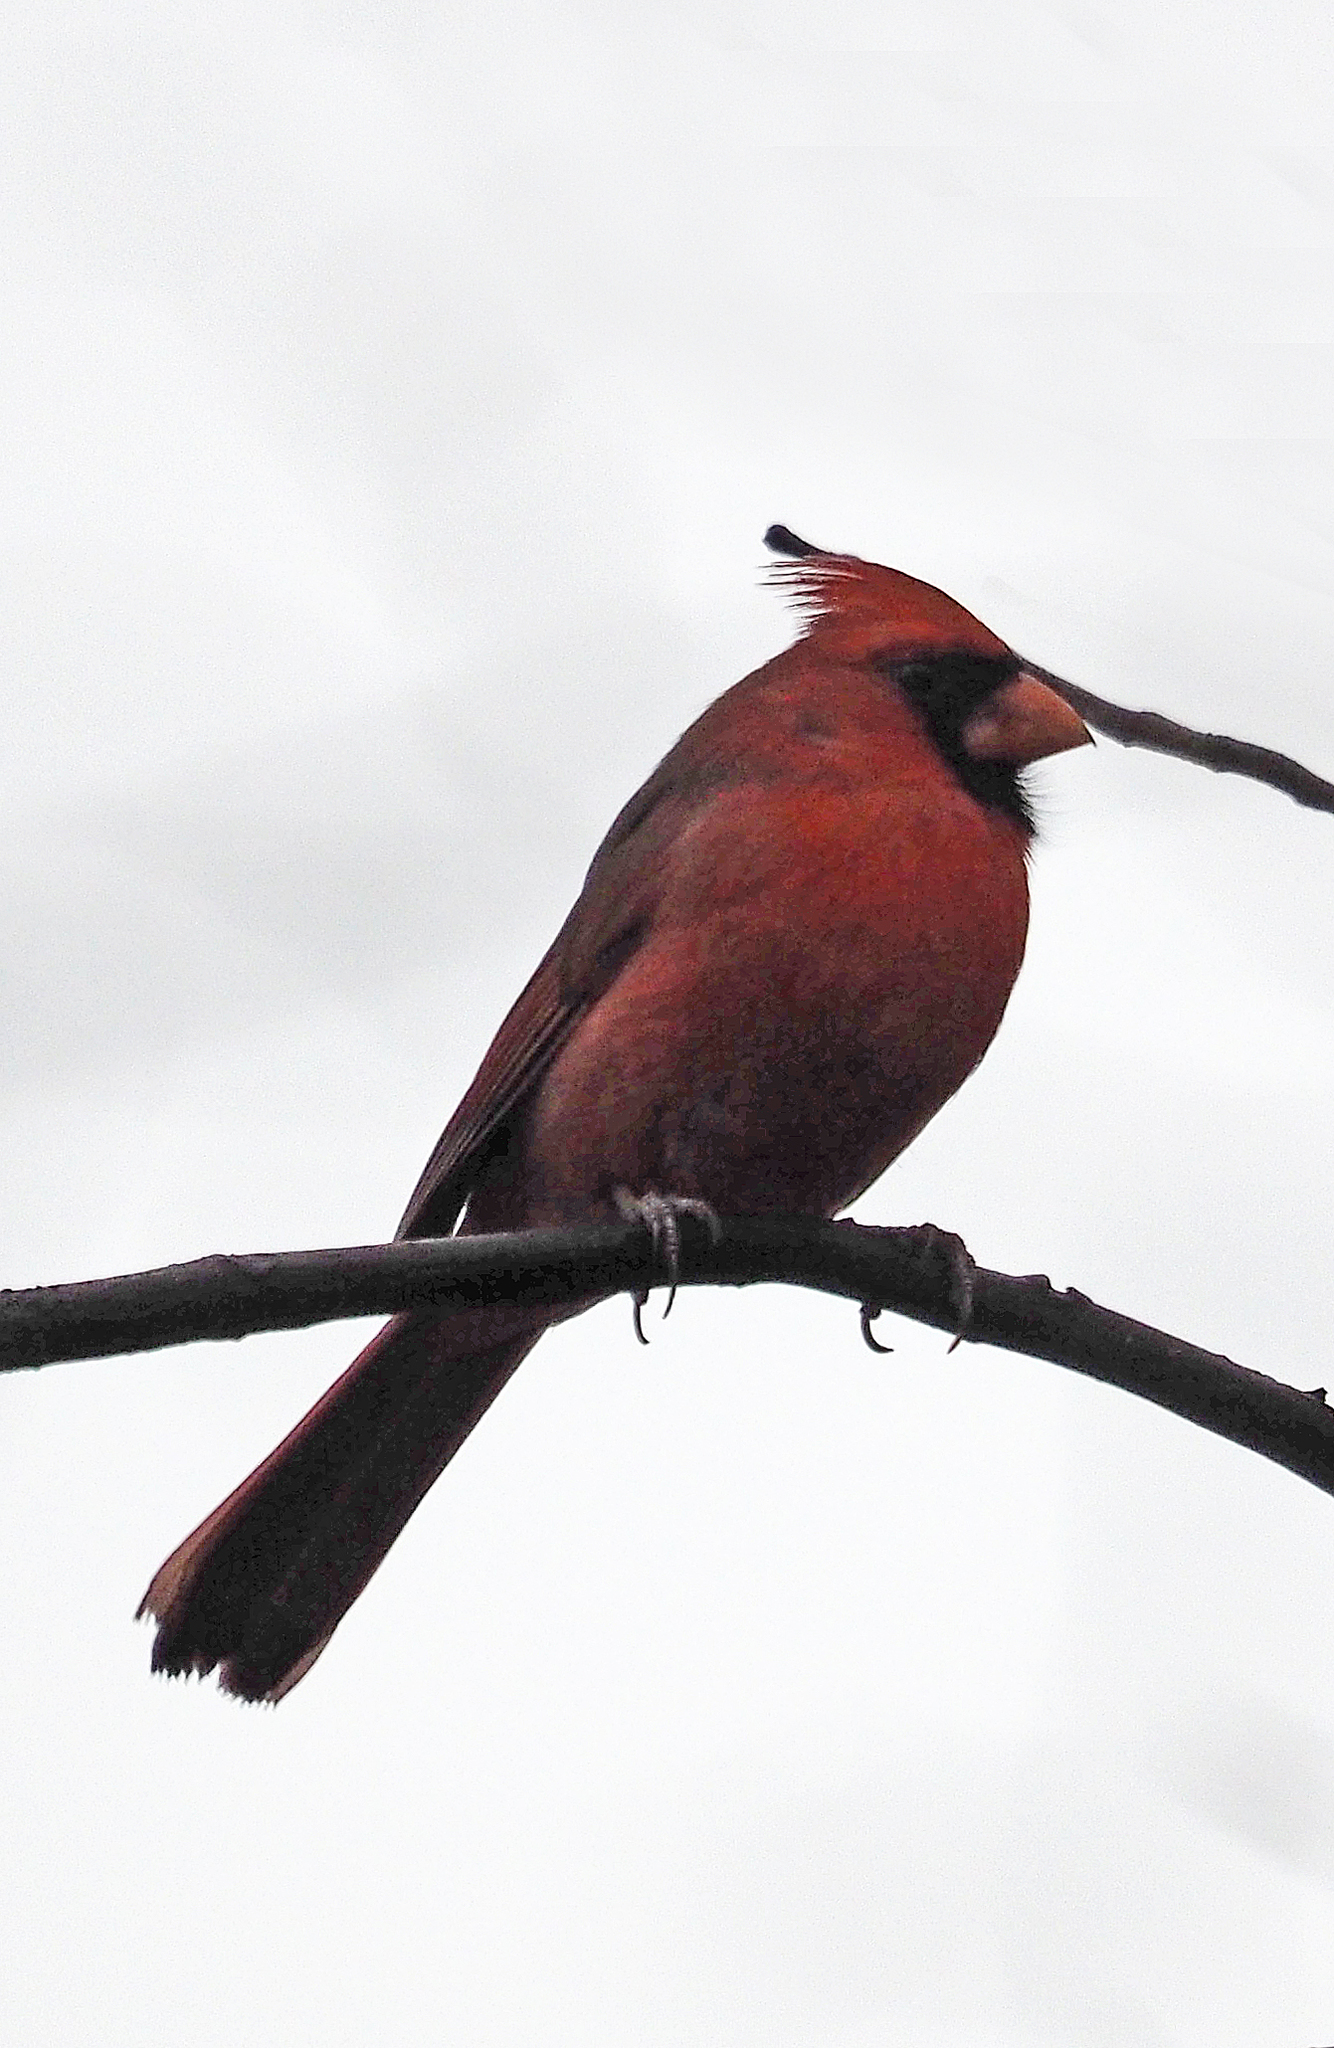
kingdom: Animalia
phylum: Chordata
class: Aves
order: Passeriformes
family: Cardinalidae
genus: Cardinalis
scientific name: Cardinalis cardinalis
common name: Northern cardinal
